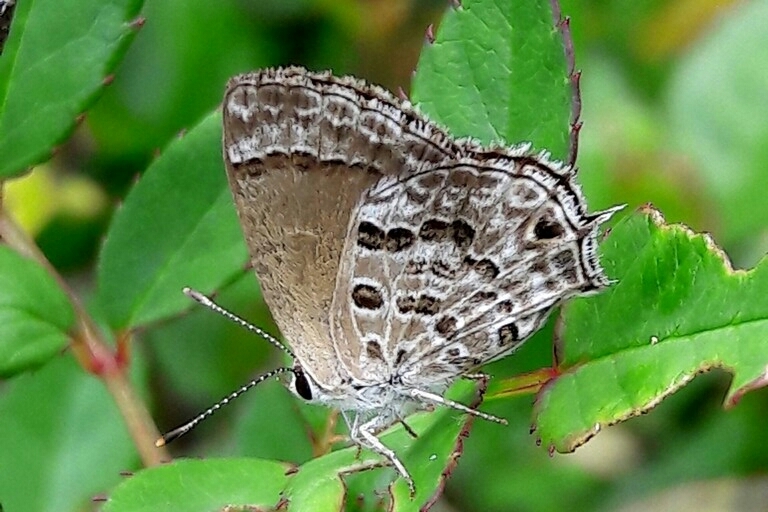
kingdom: Animalia
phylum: Arthropoda
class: Insecta
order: Lepidoptera
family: Lycaenidae
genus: Strymon
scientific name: Strymon astiocha
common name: Gray-spotted scrub-hairstreak
